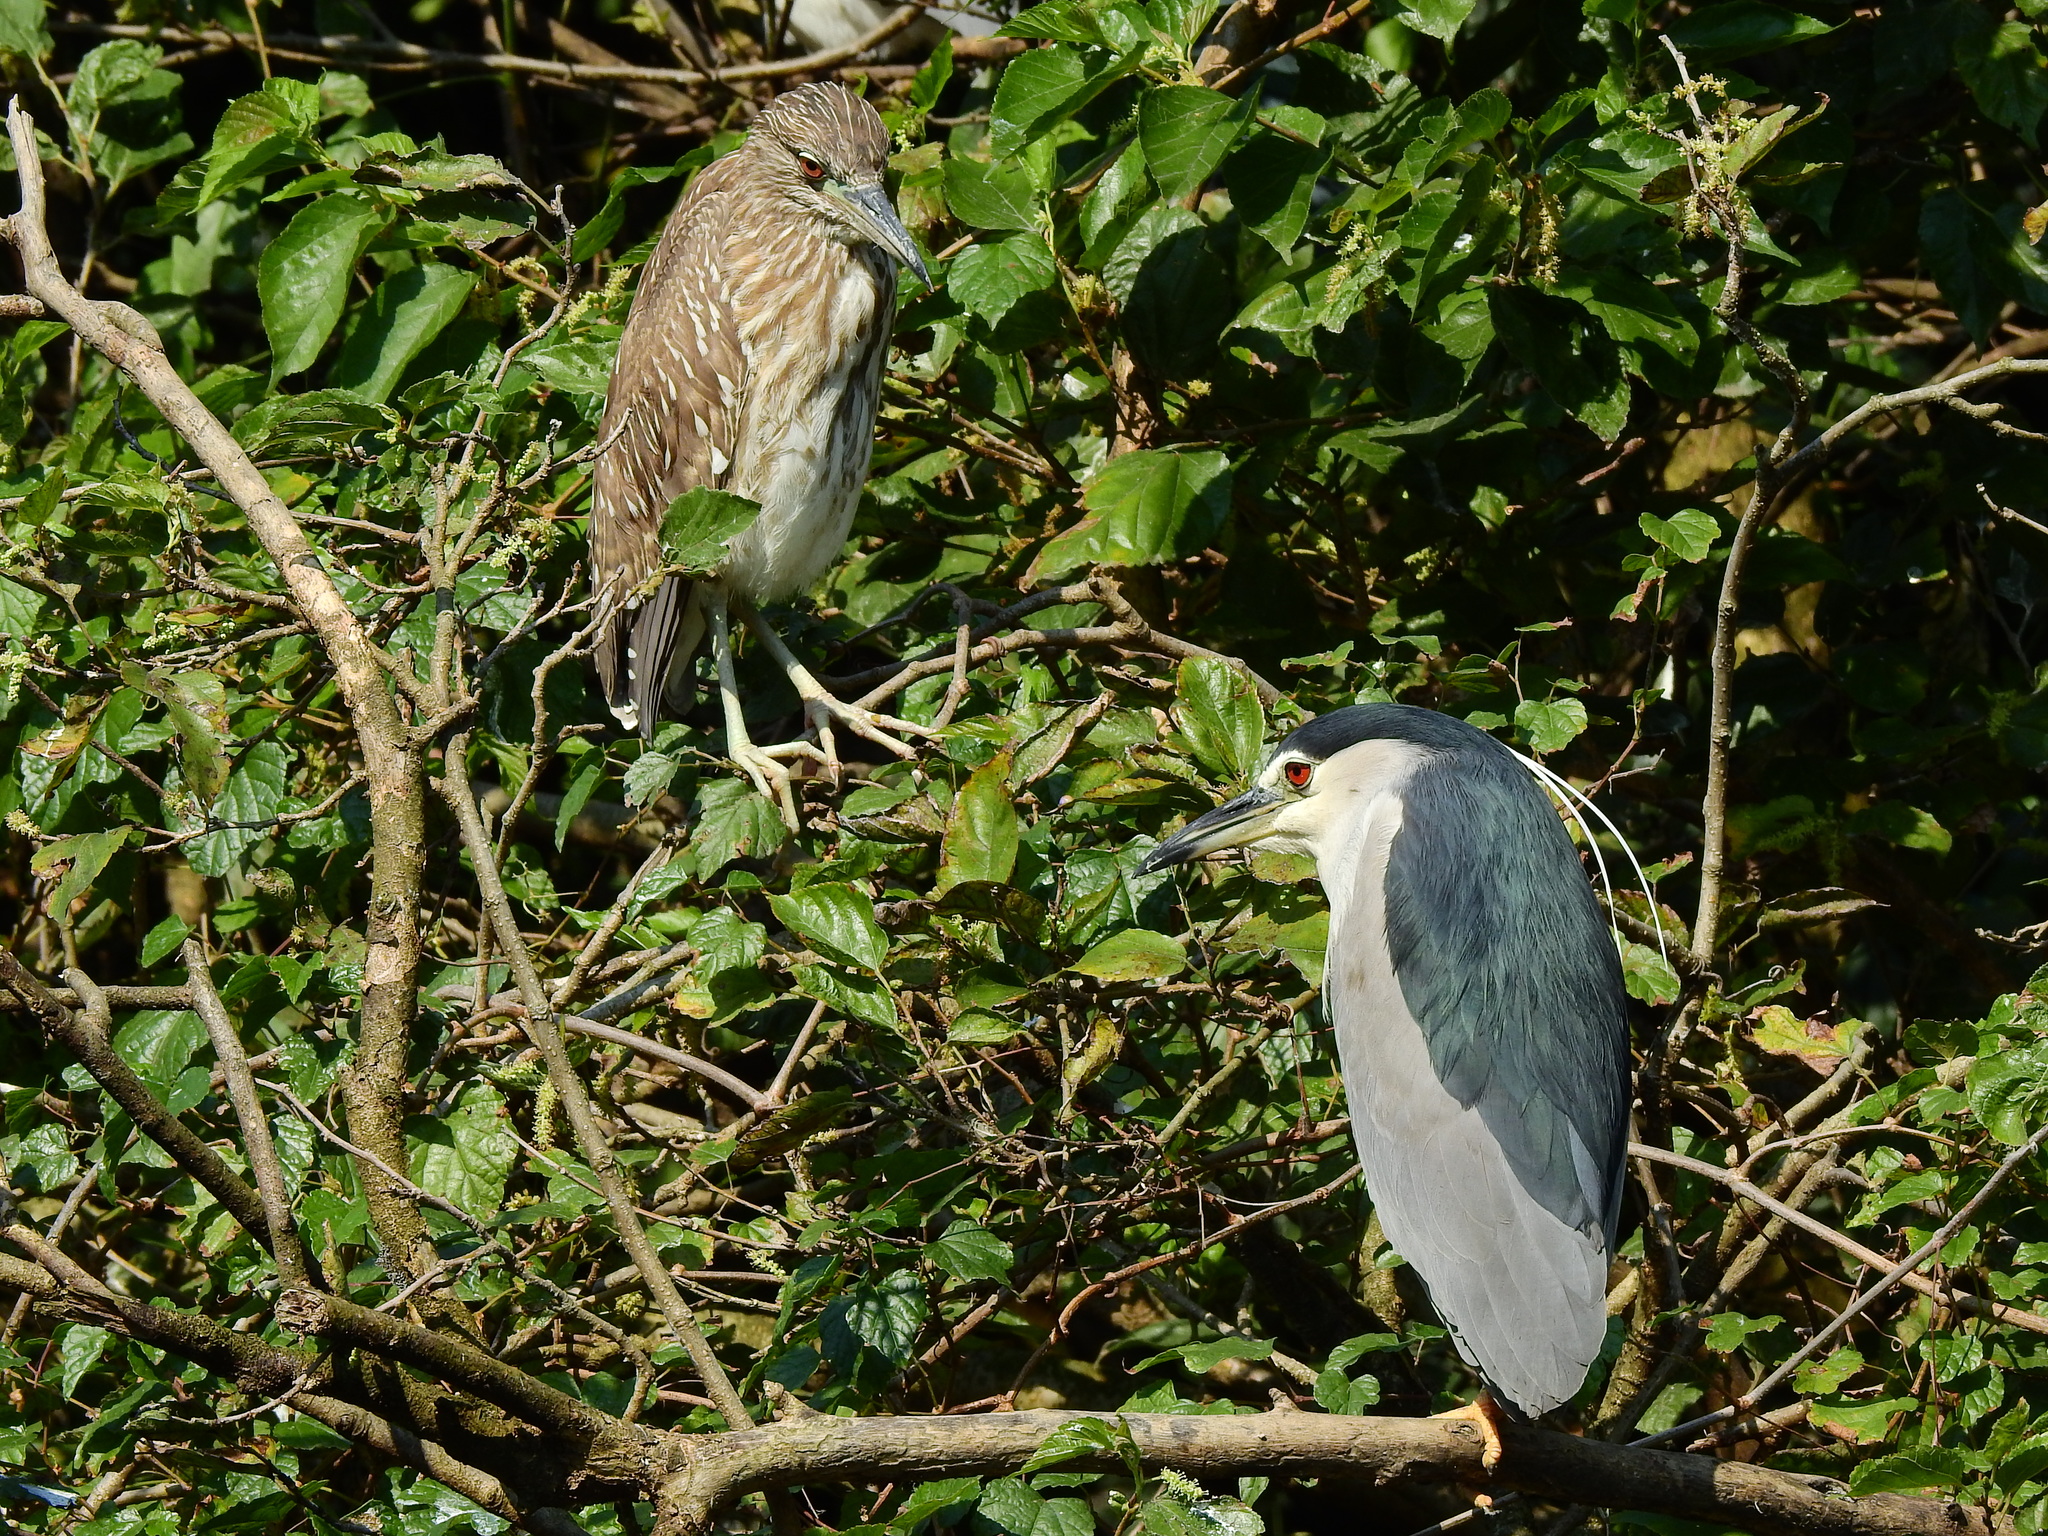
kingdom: Animalia
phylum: Chordata
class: Aves
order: Pelecaniformes
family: Ardeidae
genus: Nycticorax
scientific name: Nycticorax nycticorax
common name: Black-crowned night heron
